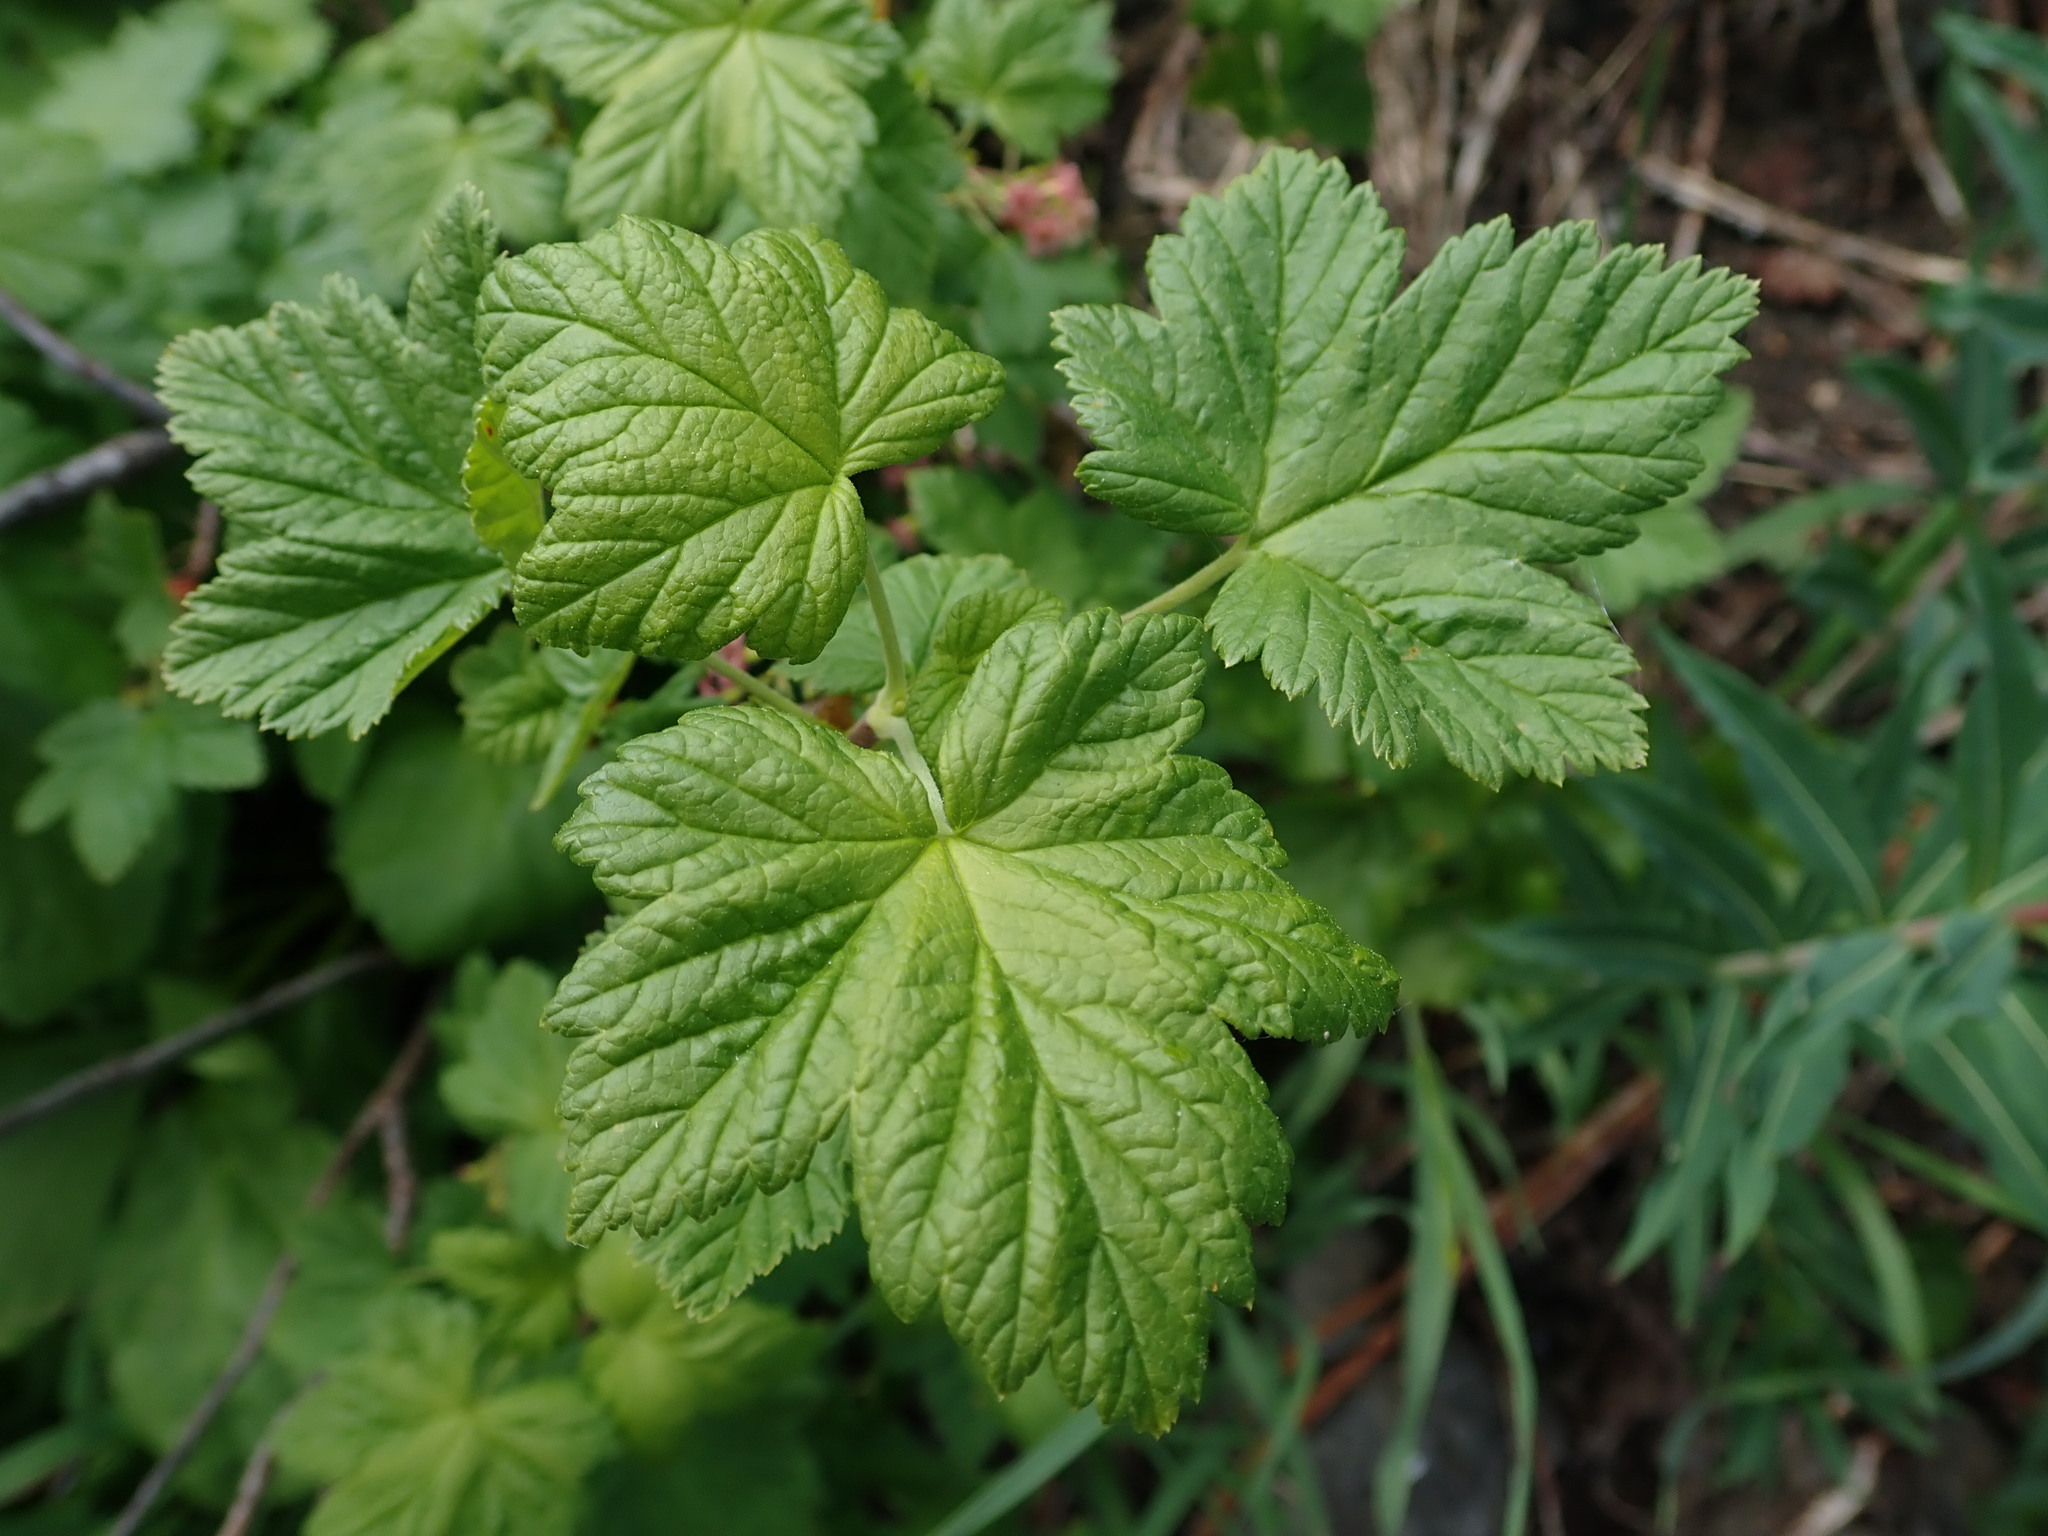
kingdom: Plantae
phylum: Tracheophyta
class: Magnoliopsida
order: Saxifragales
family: Grossulariaceae
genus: Ribes
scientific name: Ribes acerifolium
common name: Maple-leaved black currant
